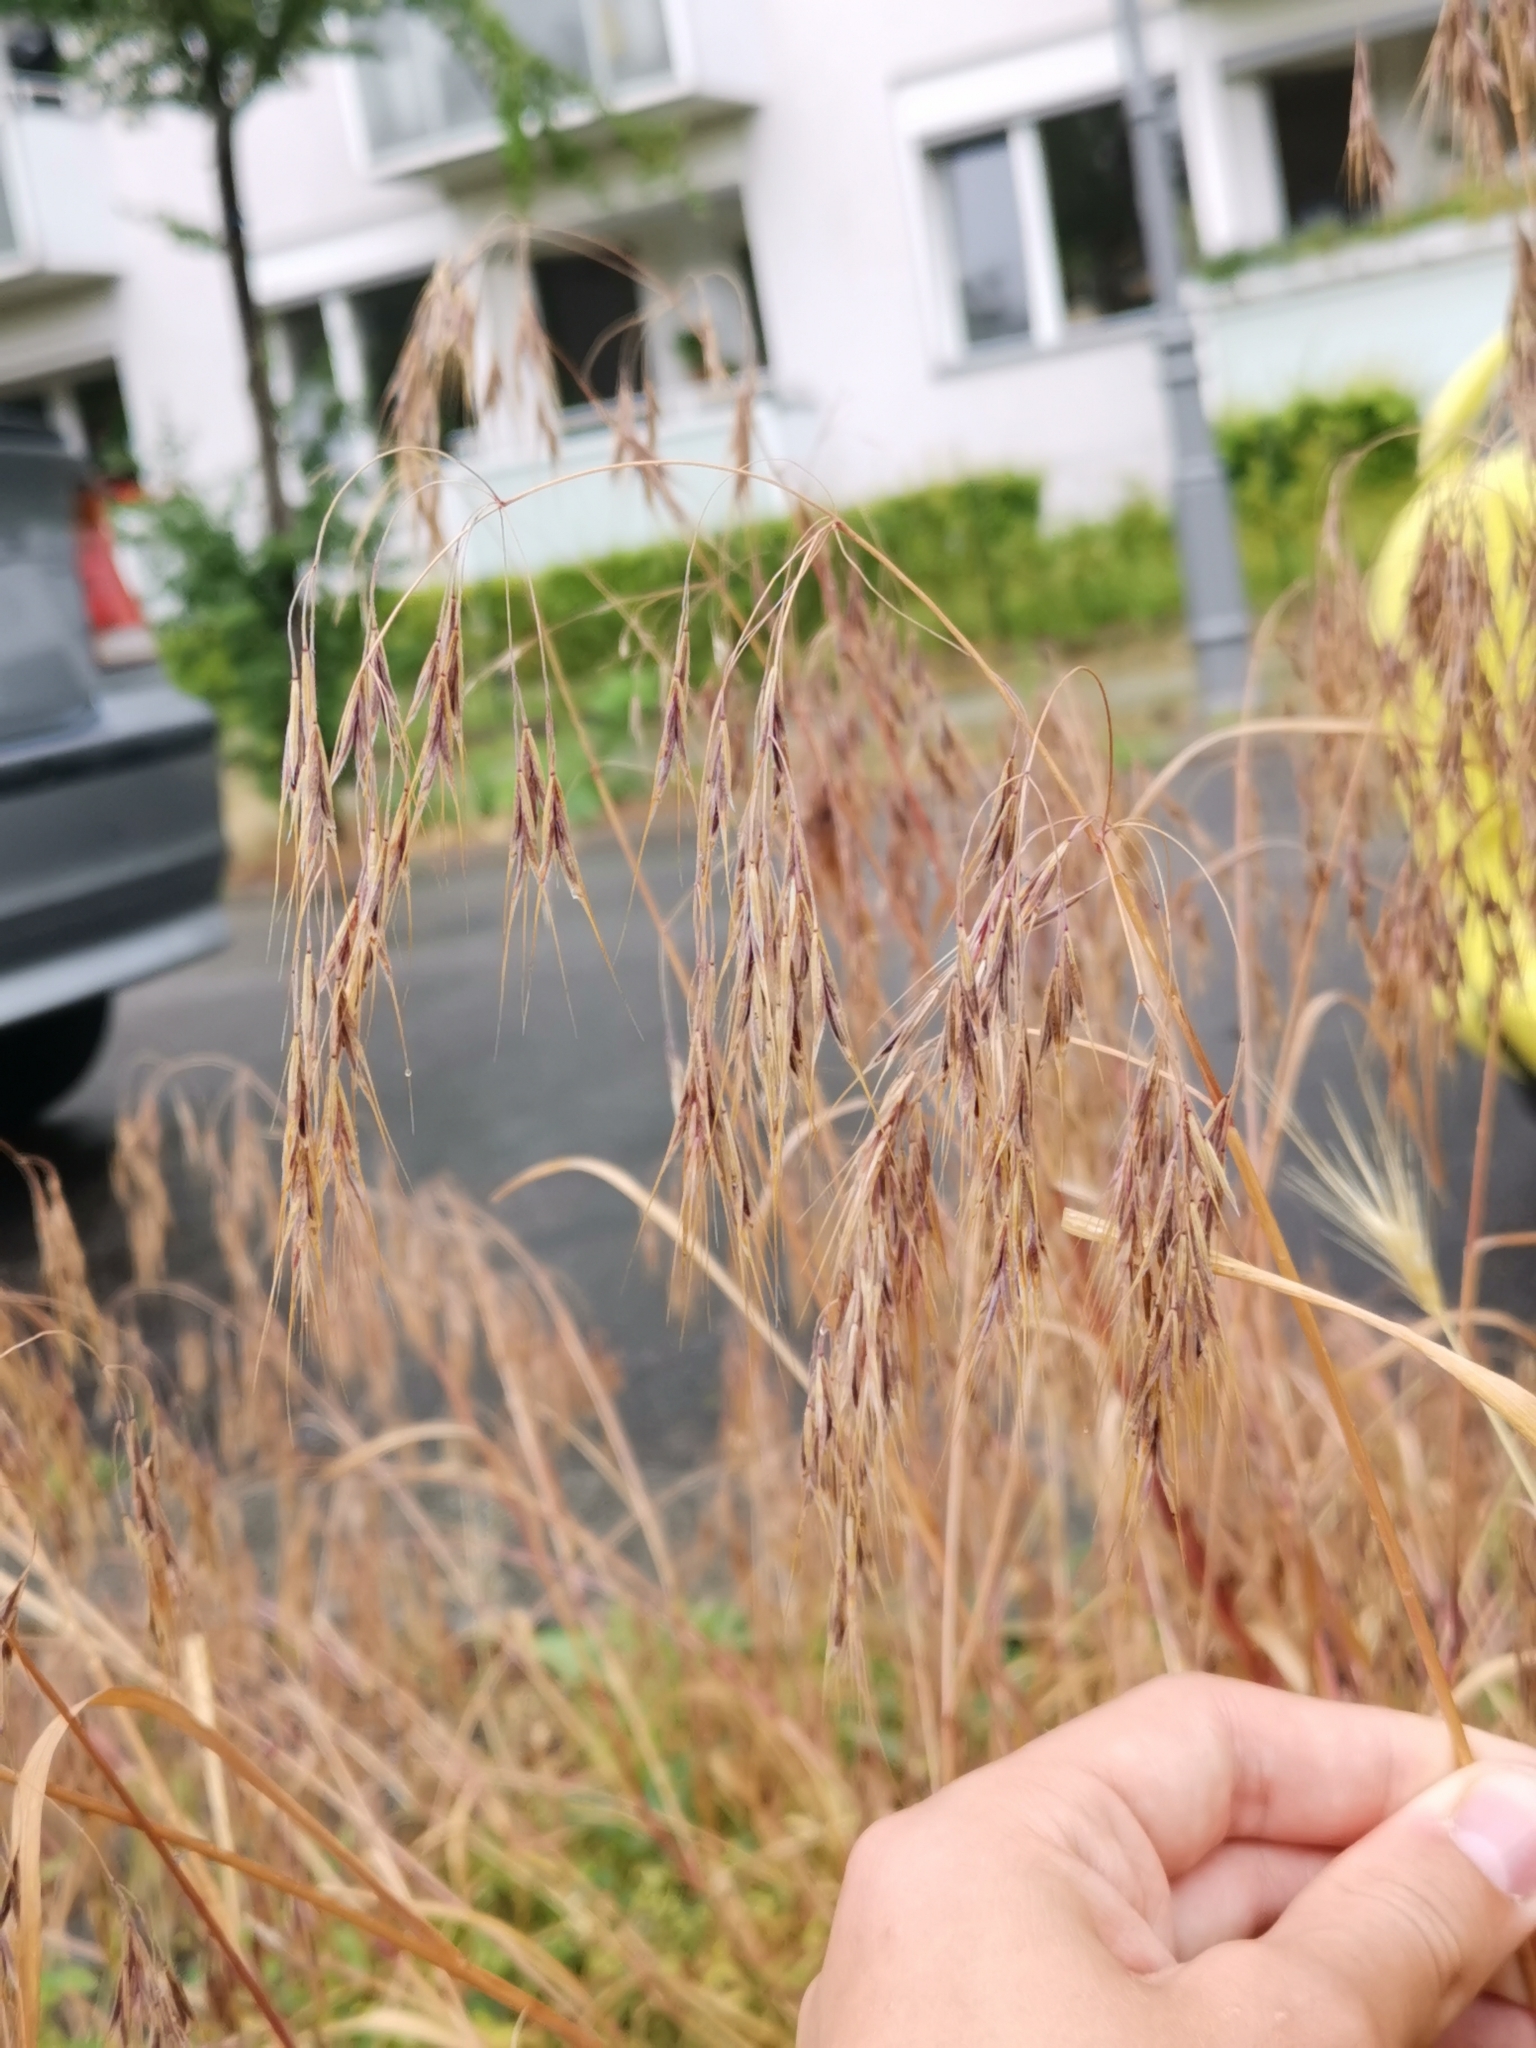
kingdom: Plantae
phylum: Tracheophyta
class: Liliopsida
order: Poales
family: Poaceae
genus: Bromus
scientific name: Bromus tectorum
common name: Cheatgrass
